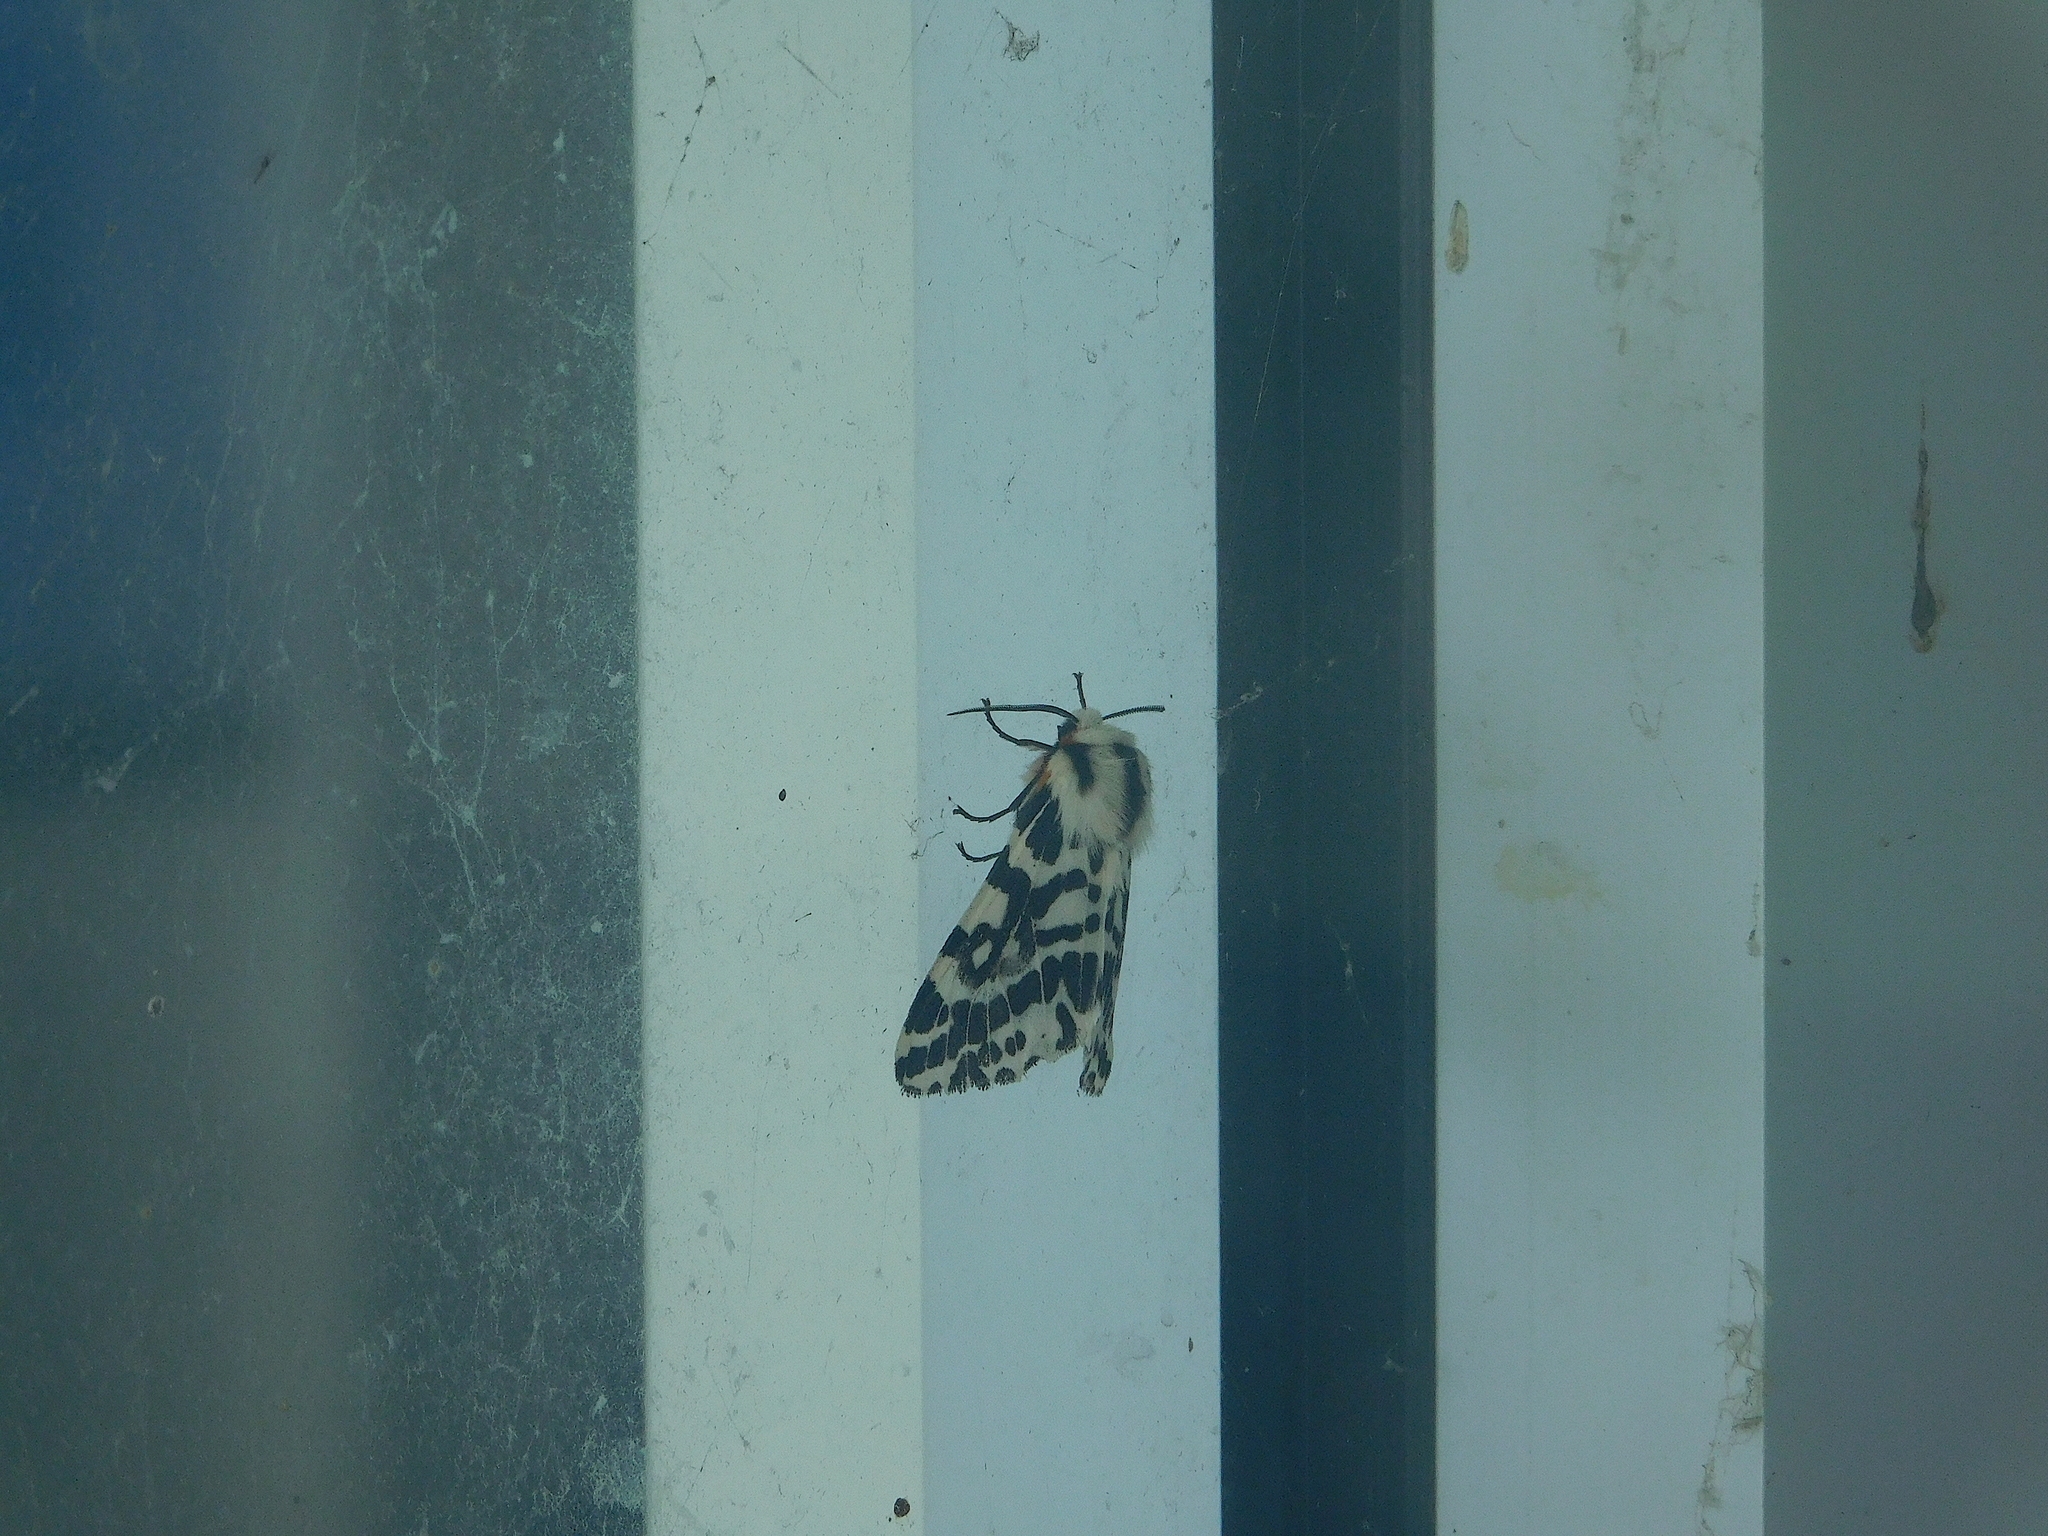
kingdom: Animalia
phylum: Arthropoda
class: Insecta
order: Lepidoptera
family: Erebidae
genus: Ardices
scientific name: Ardices glatignyi
